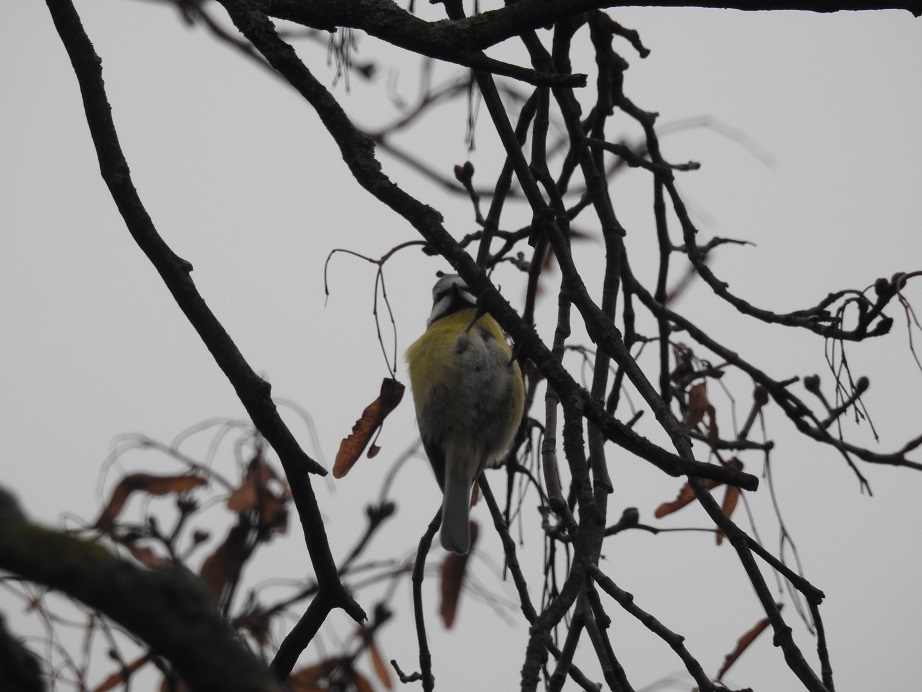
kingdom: Animalia
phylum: Chordata
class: Aves
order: Passeriformes
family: Paridae
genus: Cyanistes
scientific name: Cyanistes caeruleus
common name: Eurasian blue tit
